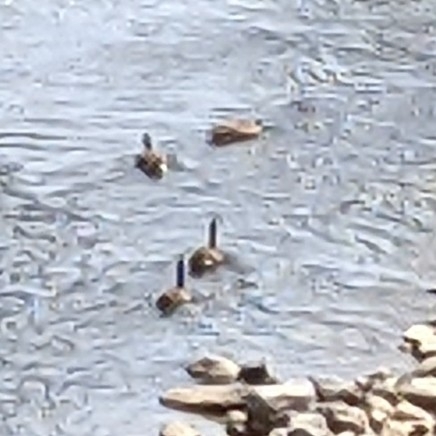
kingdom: Animalia
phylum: Chordata
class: Aves
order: Anseriformes
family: Anatidae
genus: Branta
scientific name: Branta canadensis
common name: Canada goose
